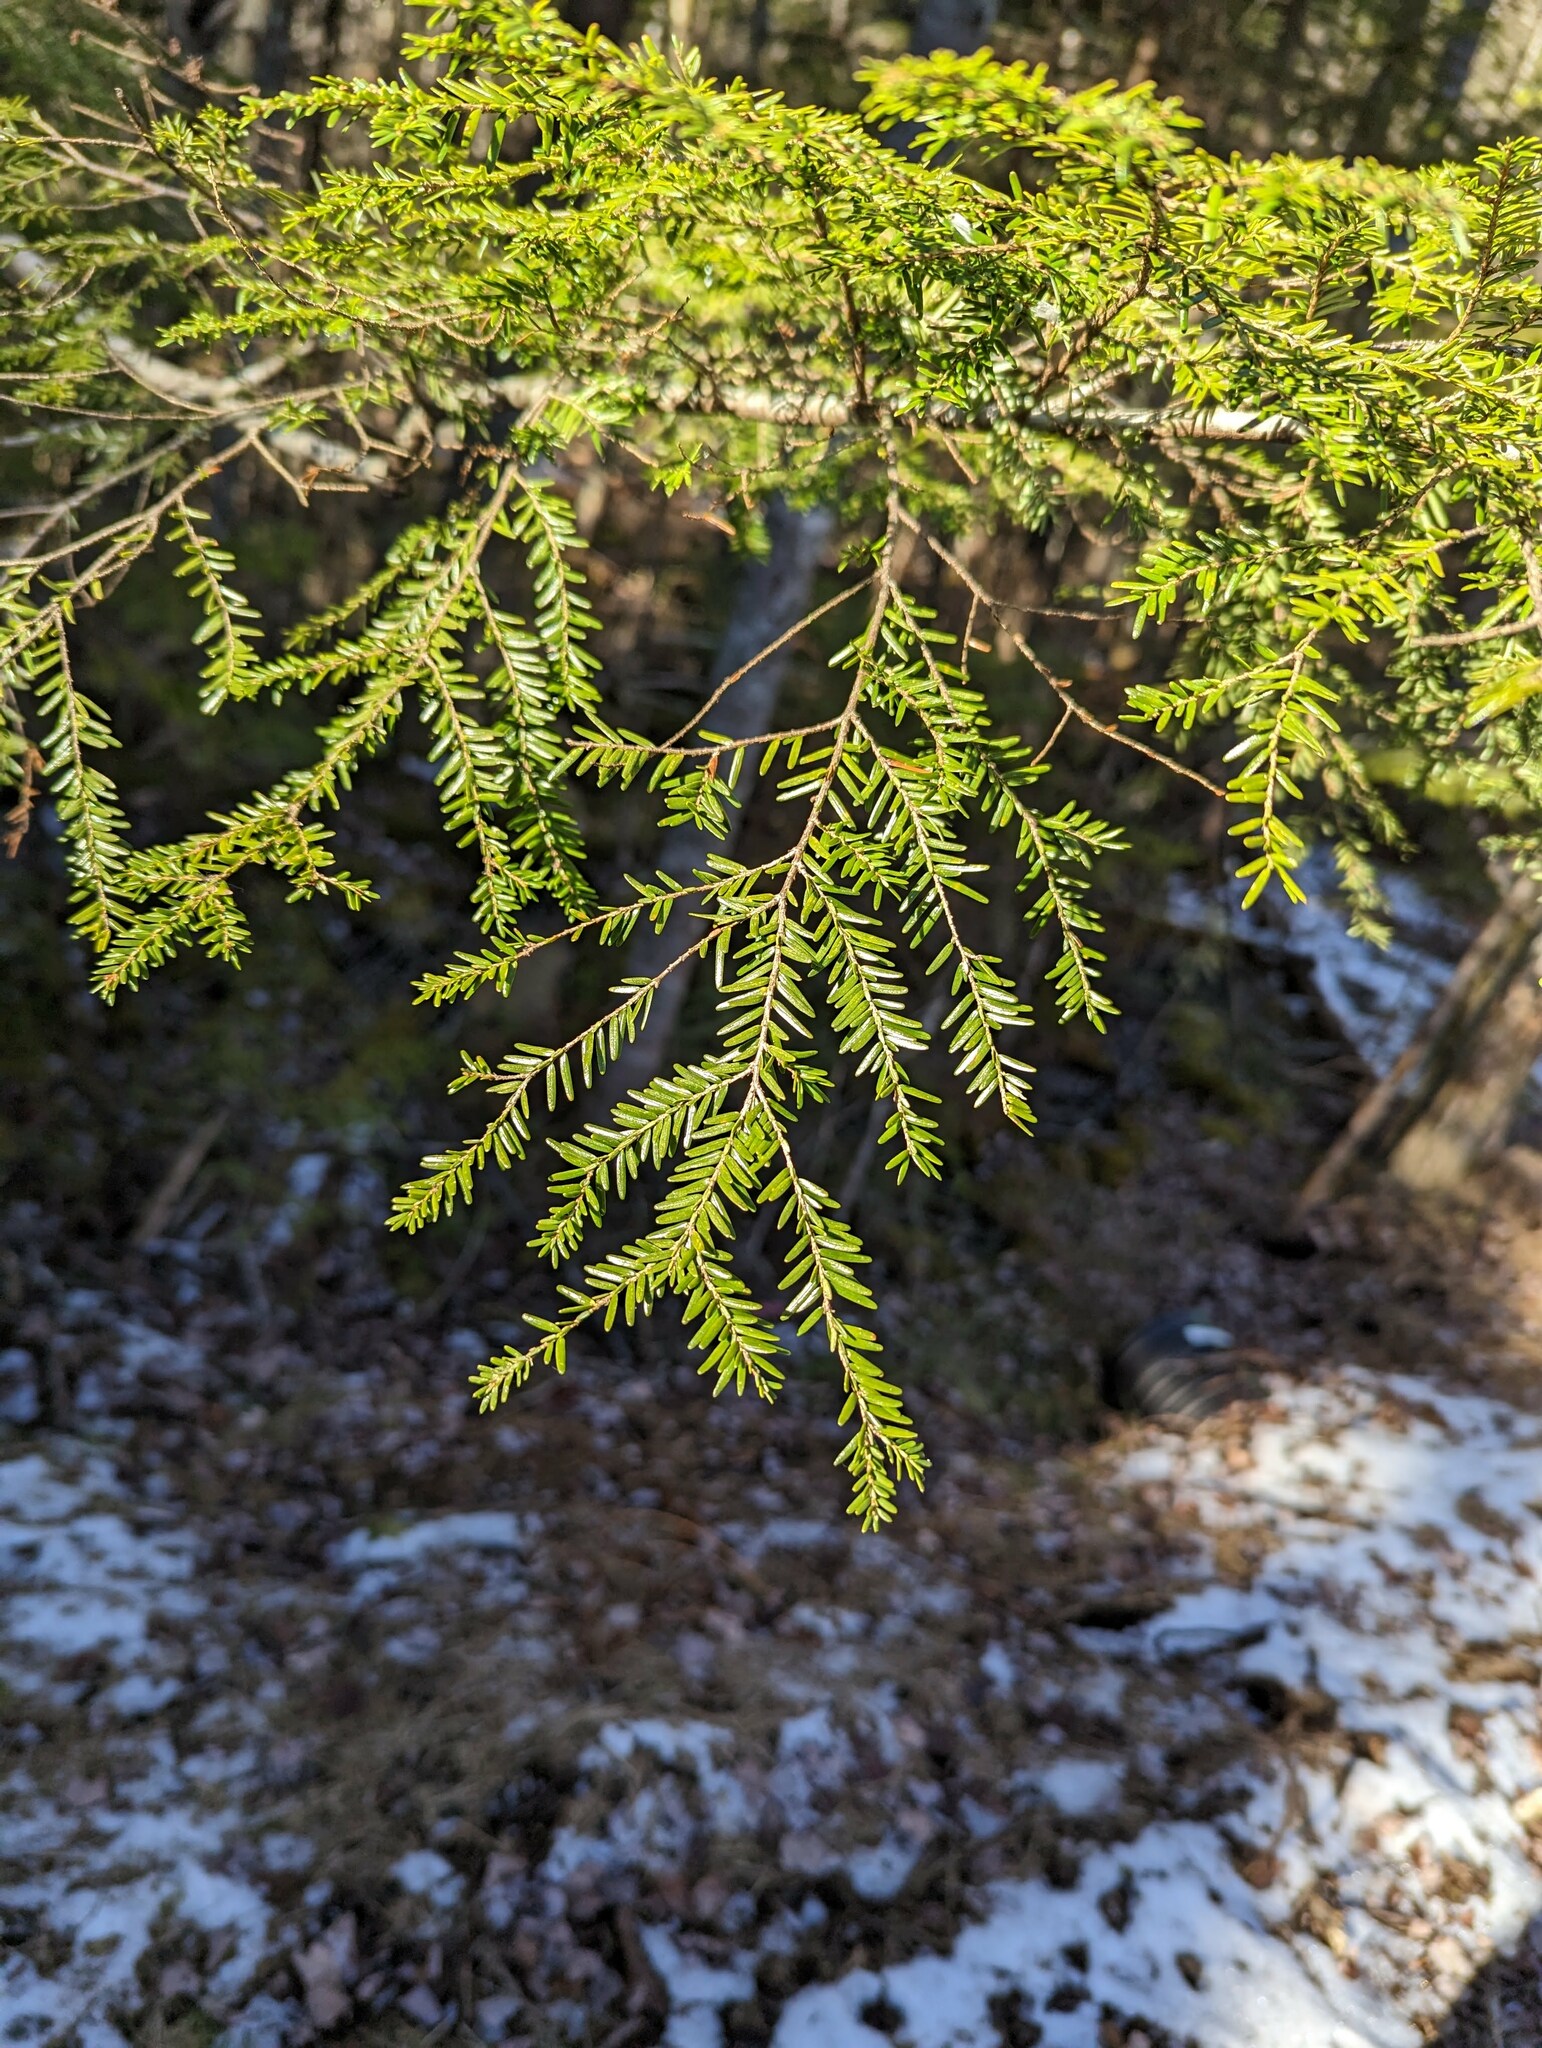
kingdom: Plantae
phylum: Tracheophyta
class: Pinopsida
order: Pinales
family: Pinaceae
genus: Tsuga
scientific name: Tsuga canadensis
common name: Eastern hemlock
